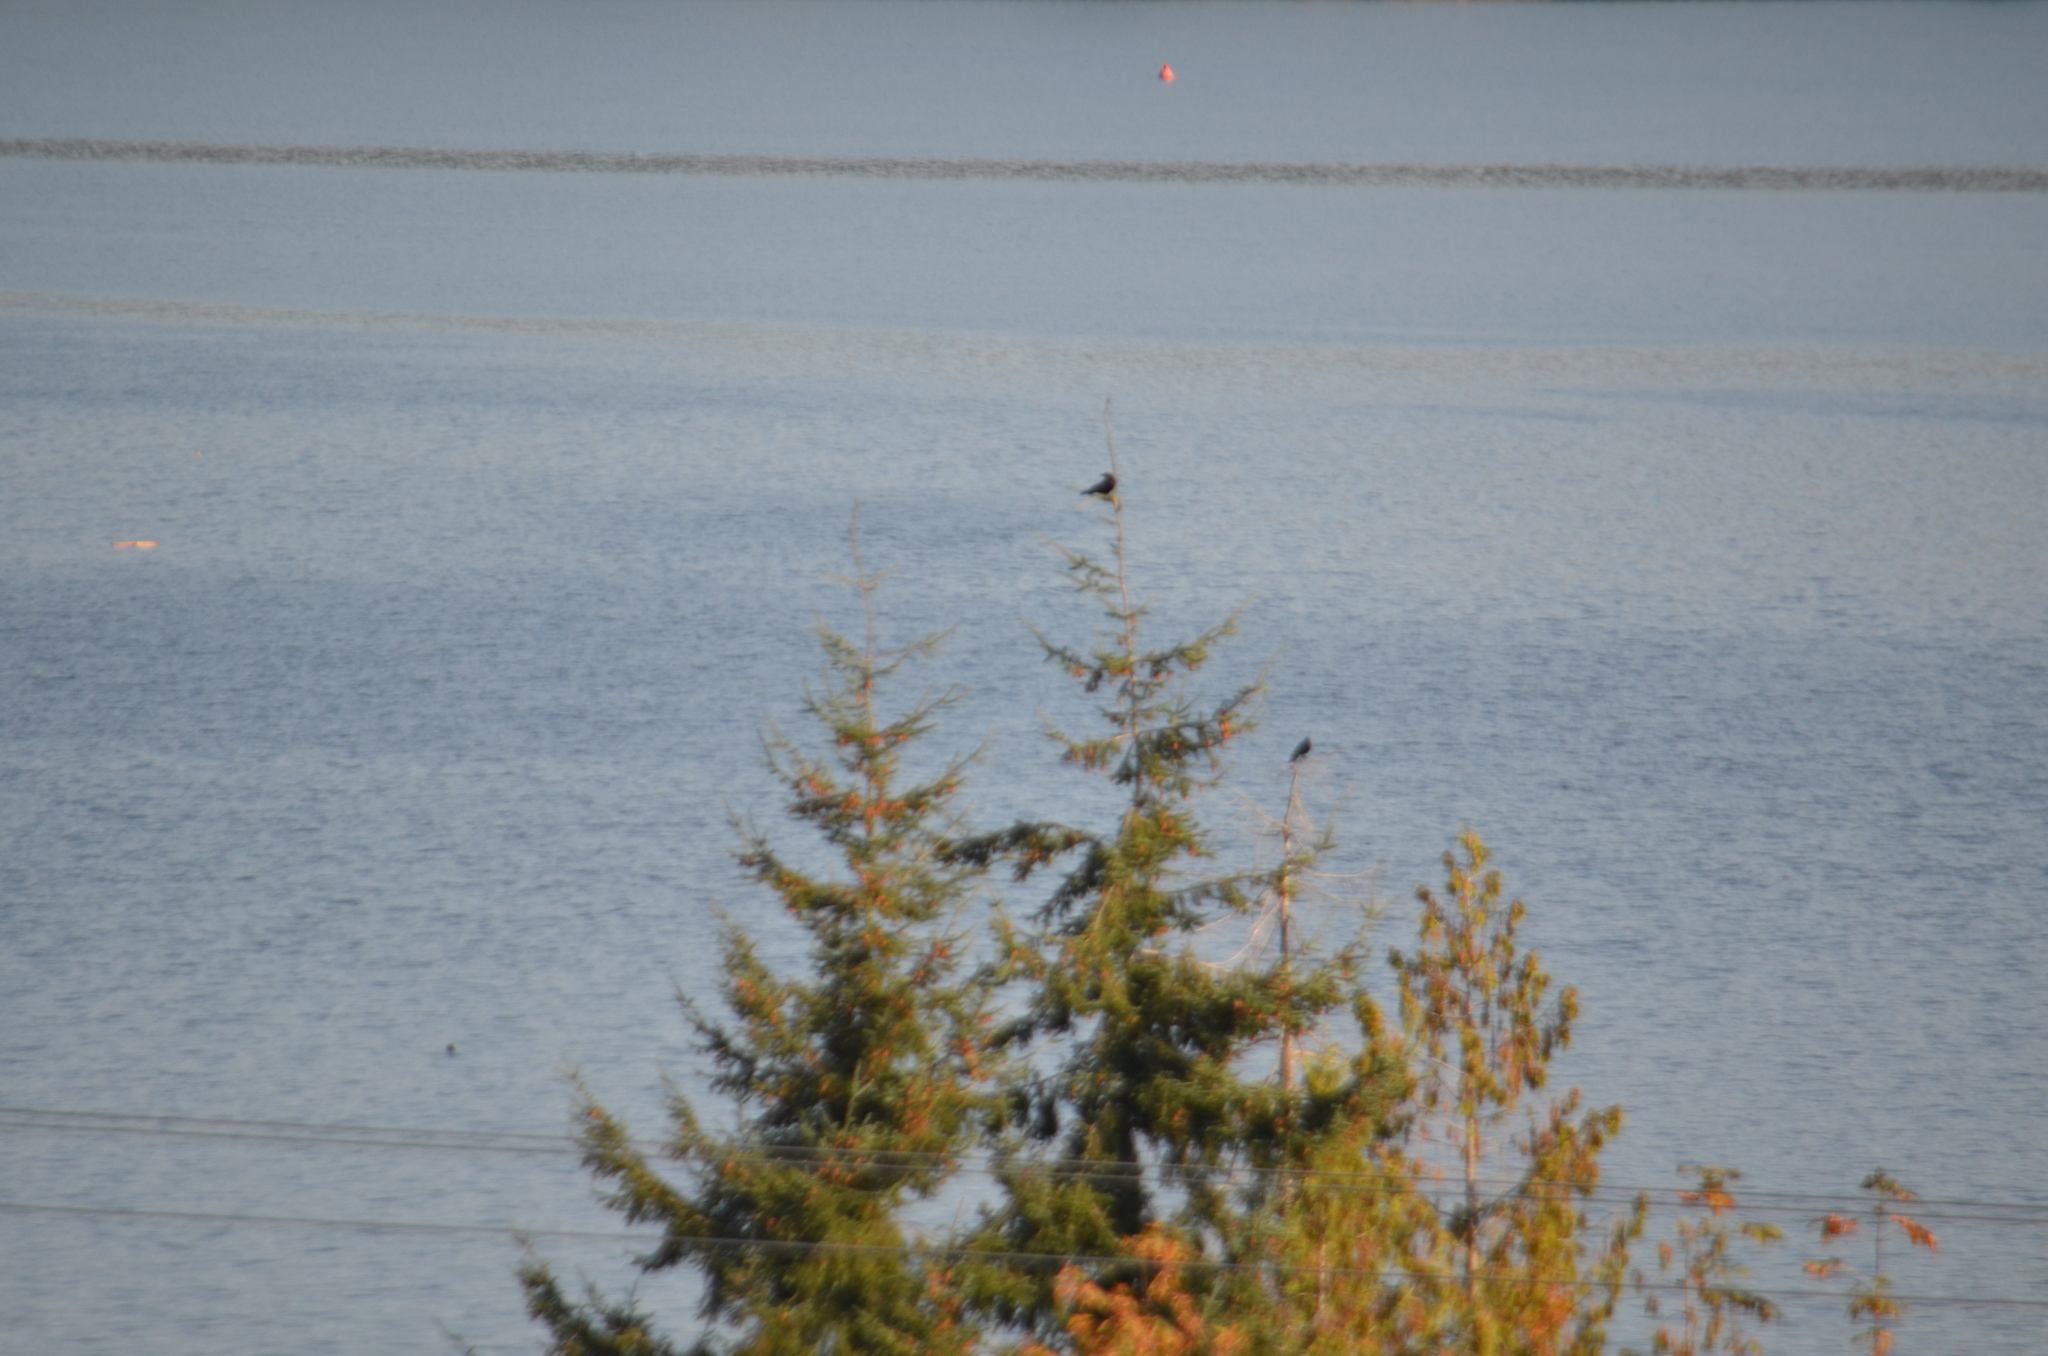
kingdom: Animalia
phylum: Chordata
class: Aves
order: Passeriformes
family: Corvidae
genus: Corvus
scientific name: Corvus brachyrhynchos
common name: American crow
